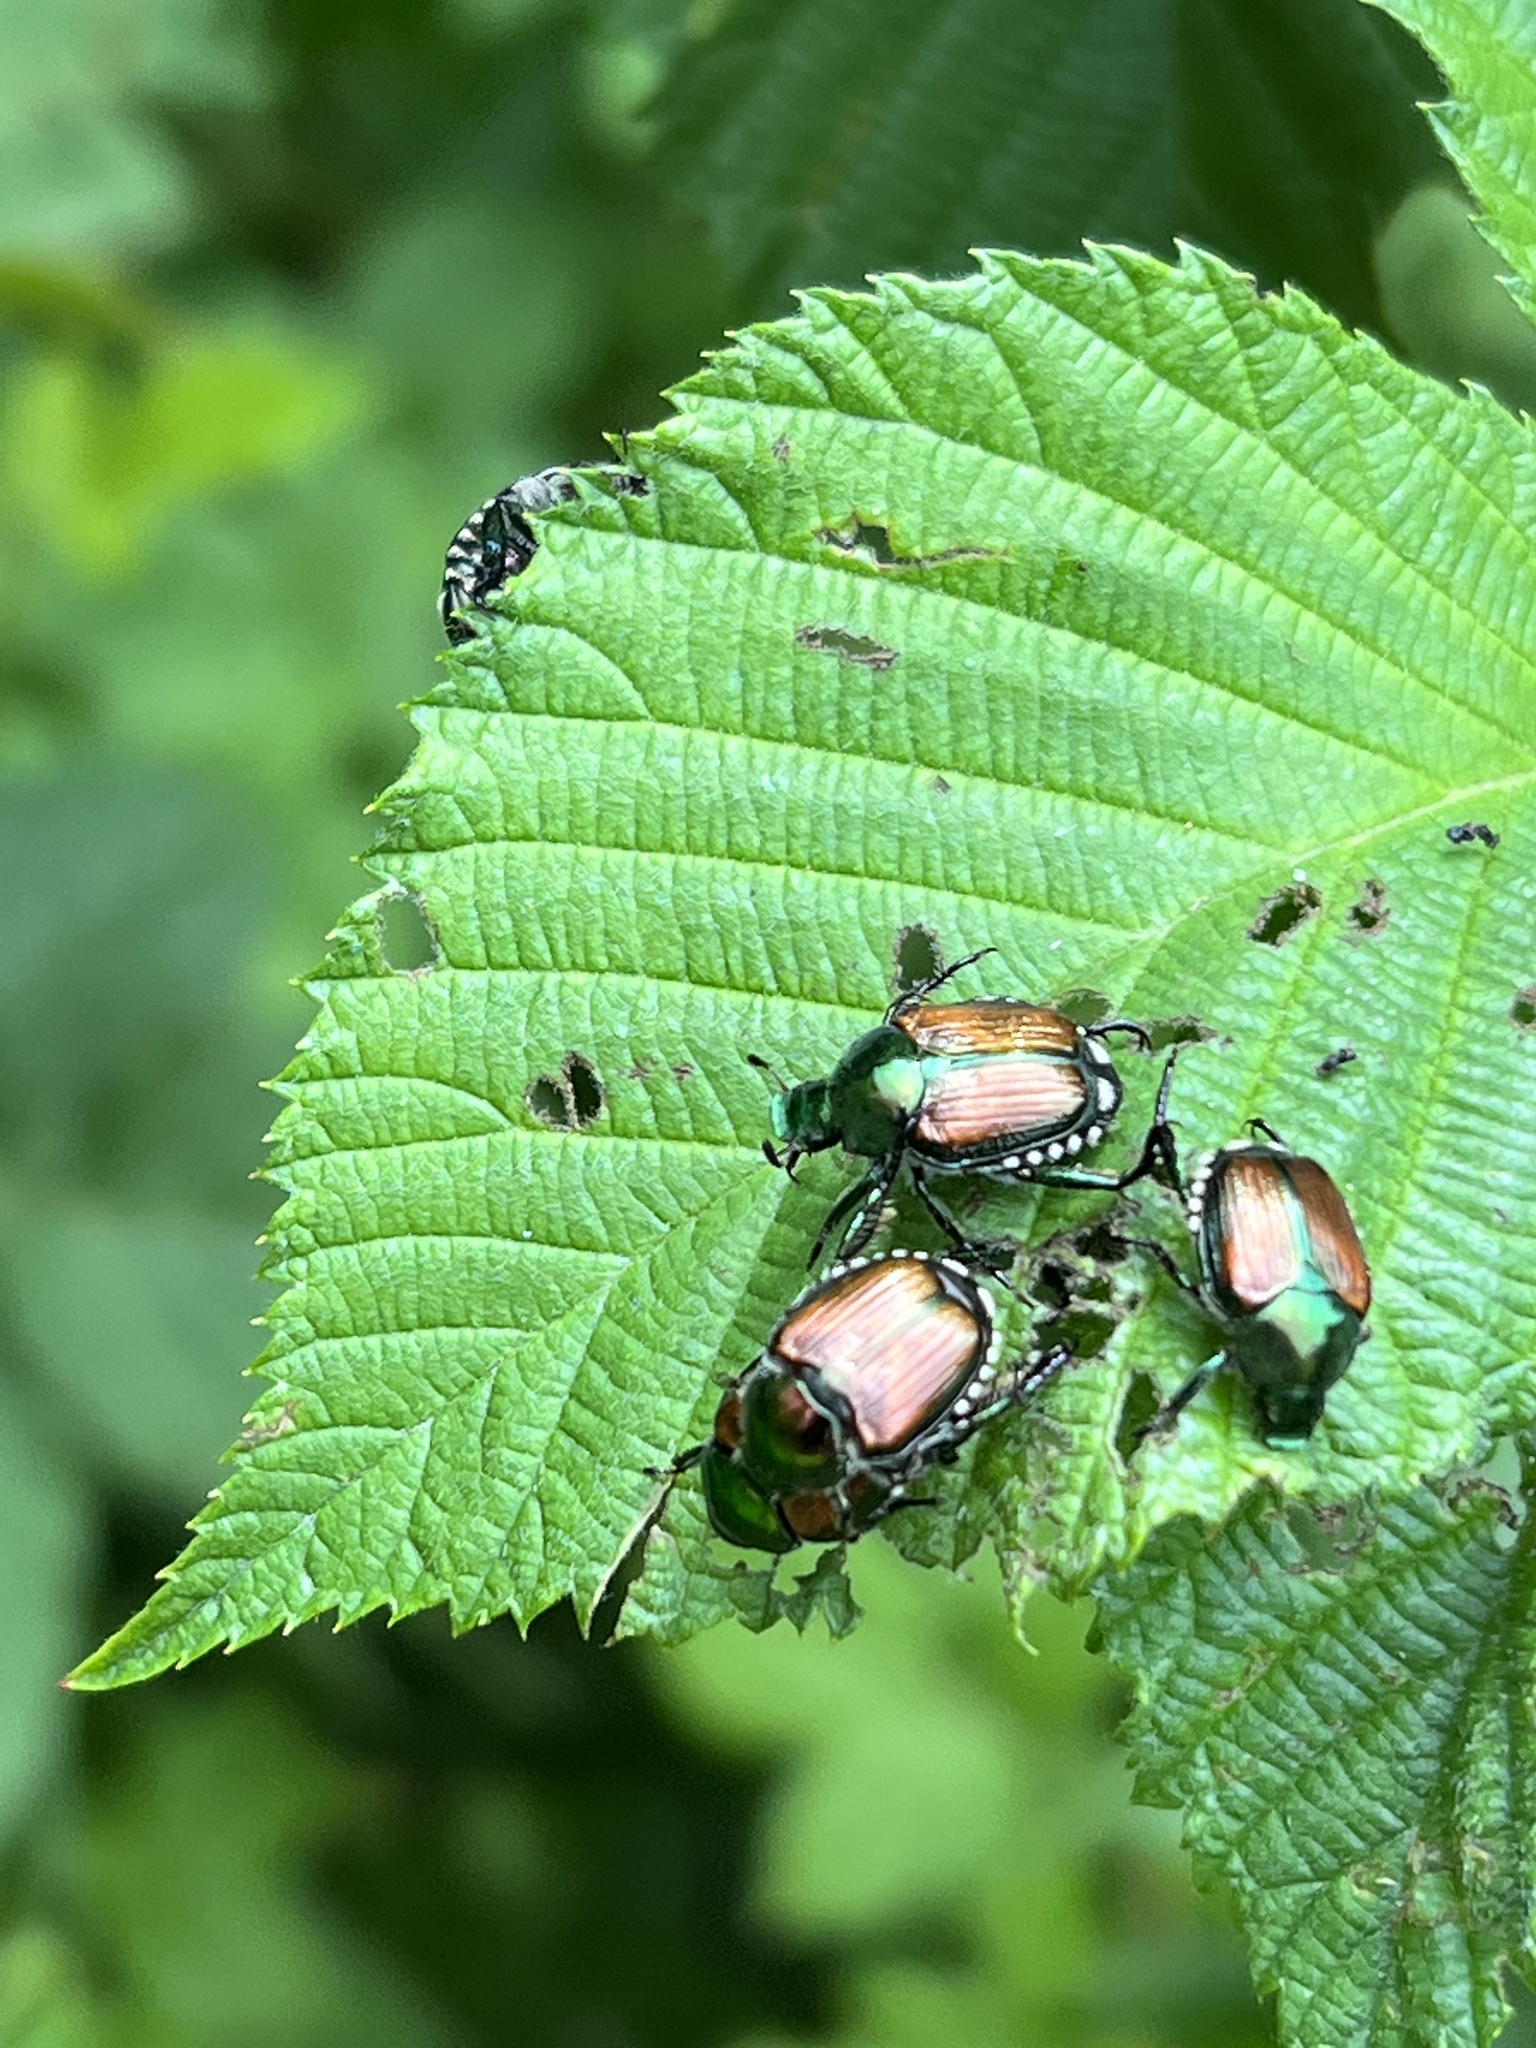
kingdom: Animalia
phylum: Arthropoda
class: Insecta
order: Coleoptera
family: Scarabaeidae
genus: Popillia
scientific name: Popillia japonica
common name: Japanese beetle
